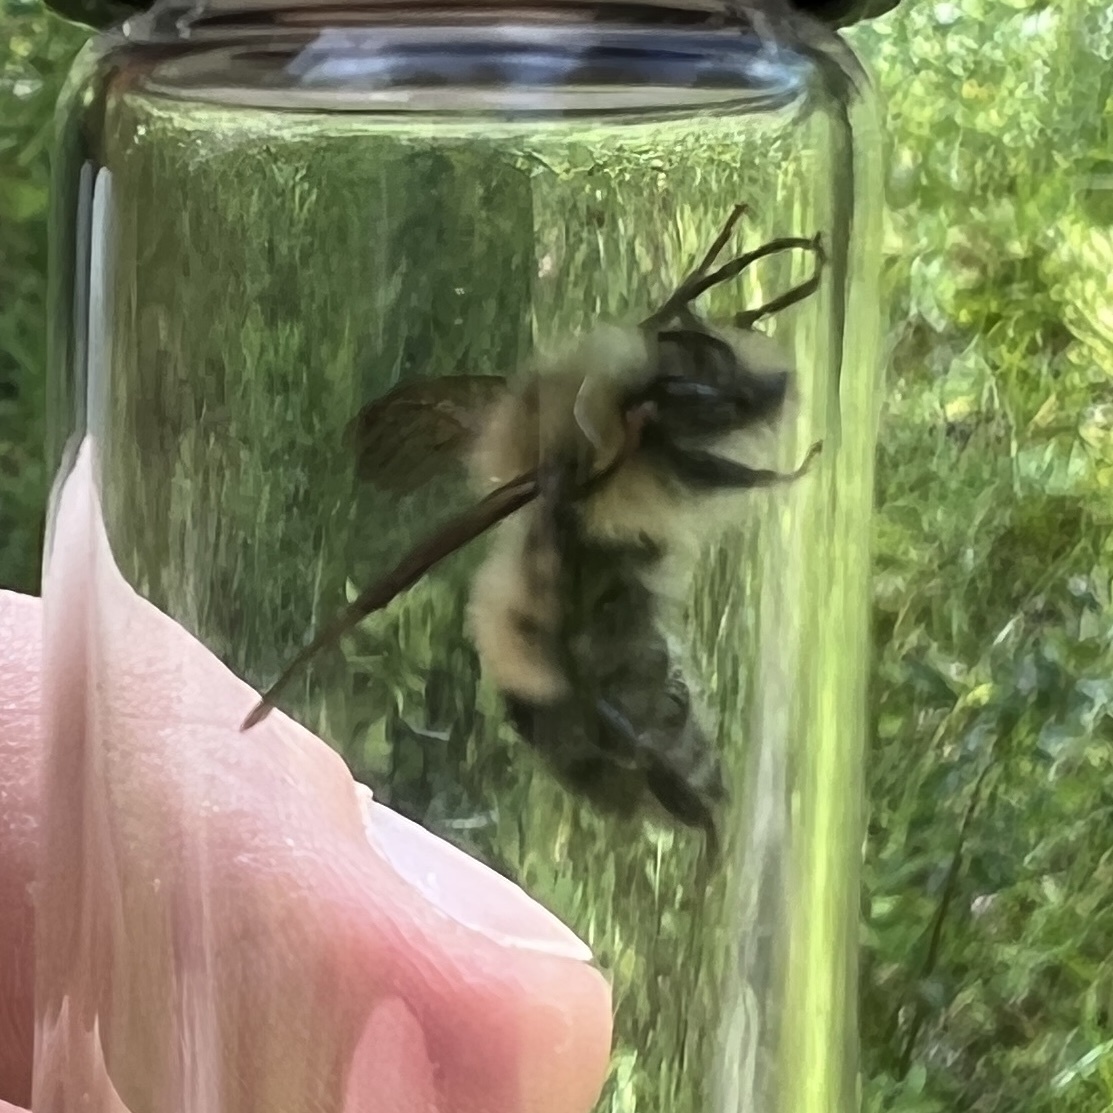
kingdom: Animalia
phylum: Arthropoda
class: Insecta
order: Hymenoptera
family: Apidae
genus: Pyrobombus
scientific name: Pyrobombus
